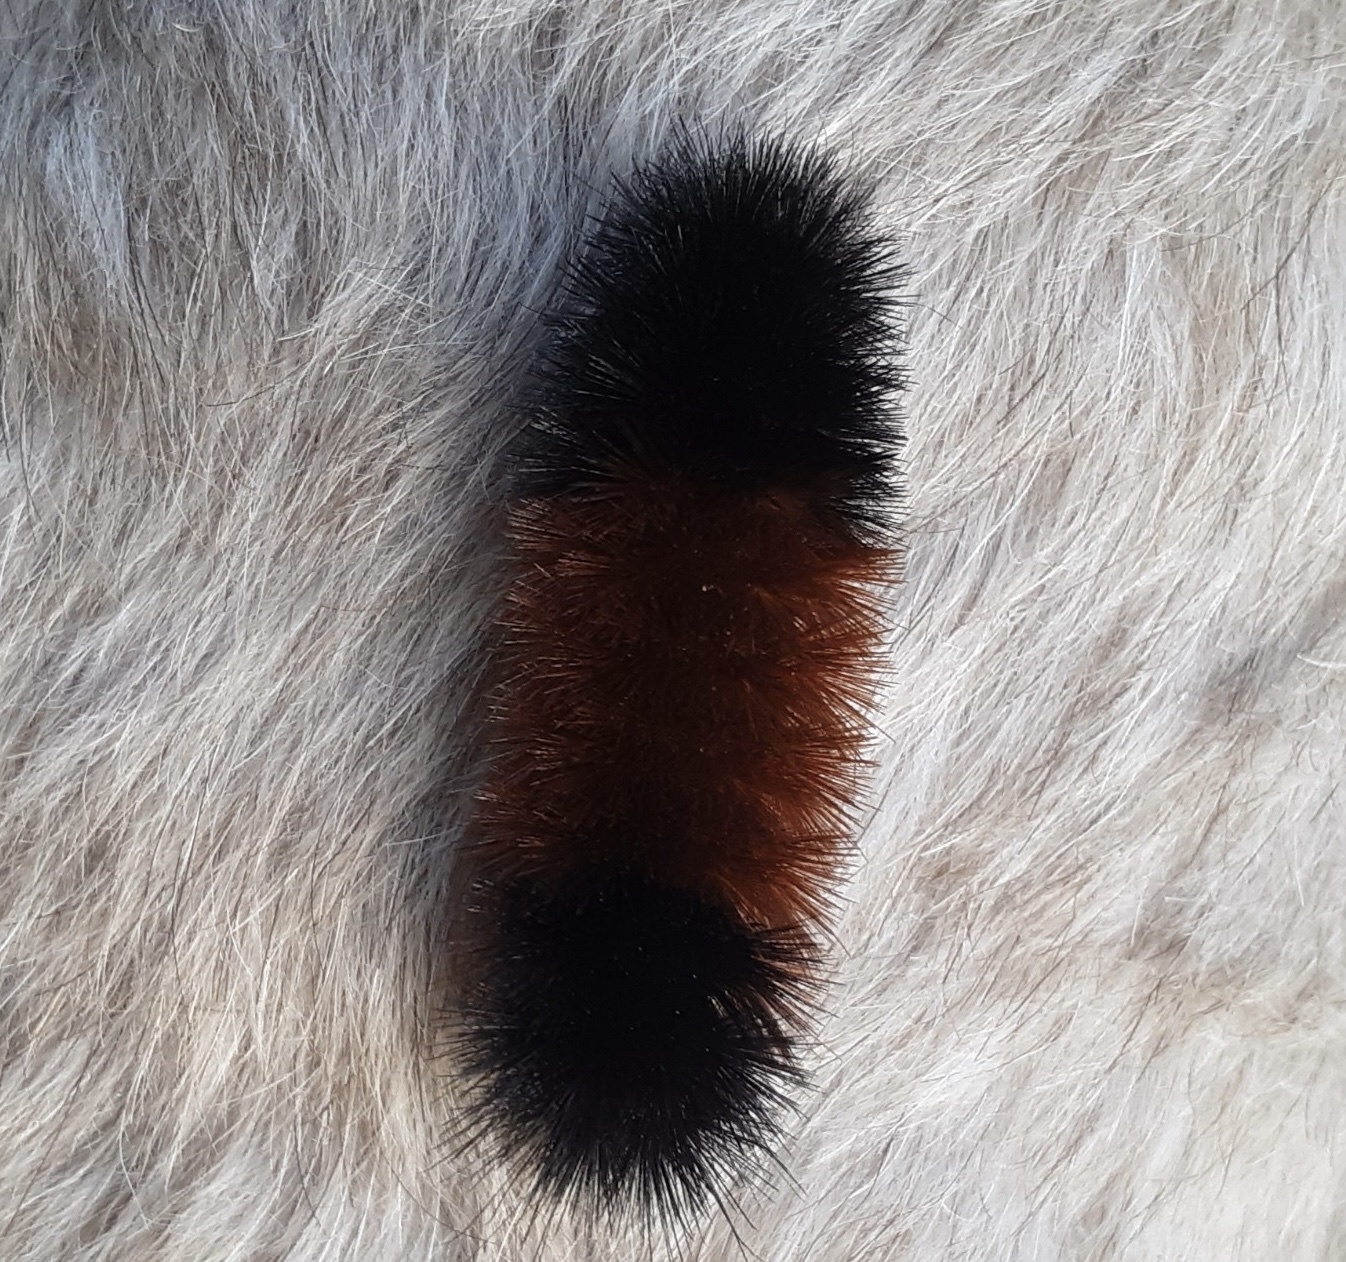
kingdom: Animalia
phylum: Arthropoda
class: Insecta
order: Lepidoptera
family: Erebidae
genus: Pyrrharctia
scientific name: Pyrrharctia isabella
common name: Isabella tiger moth
